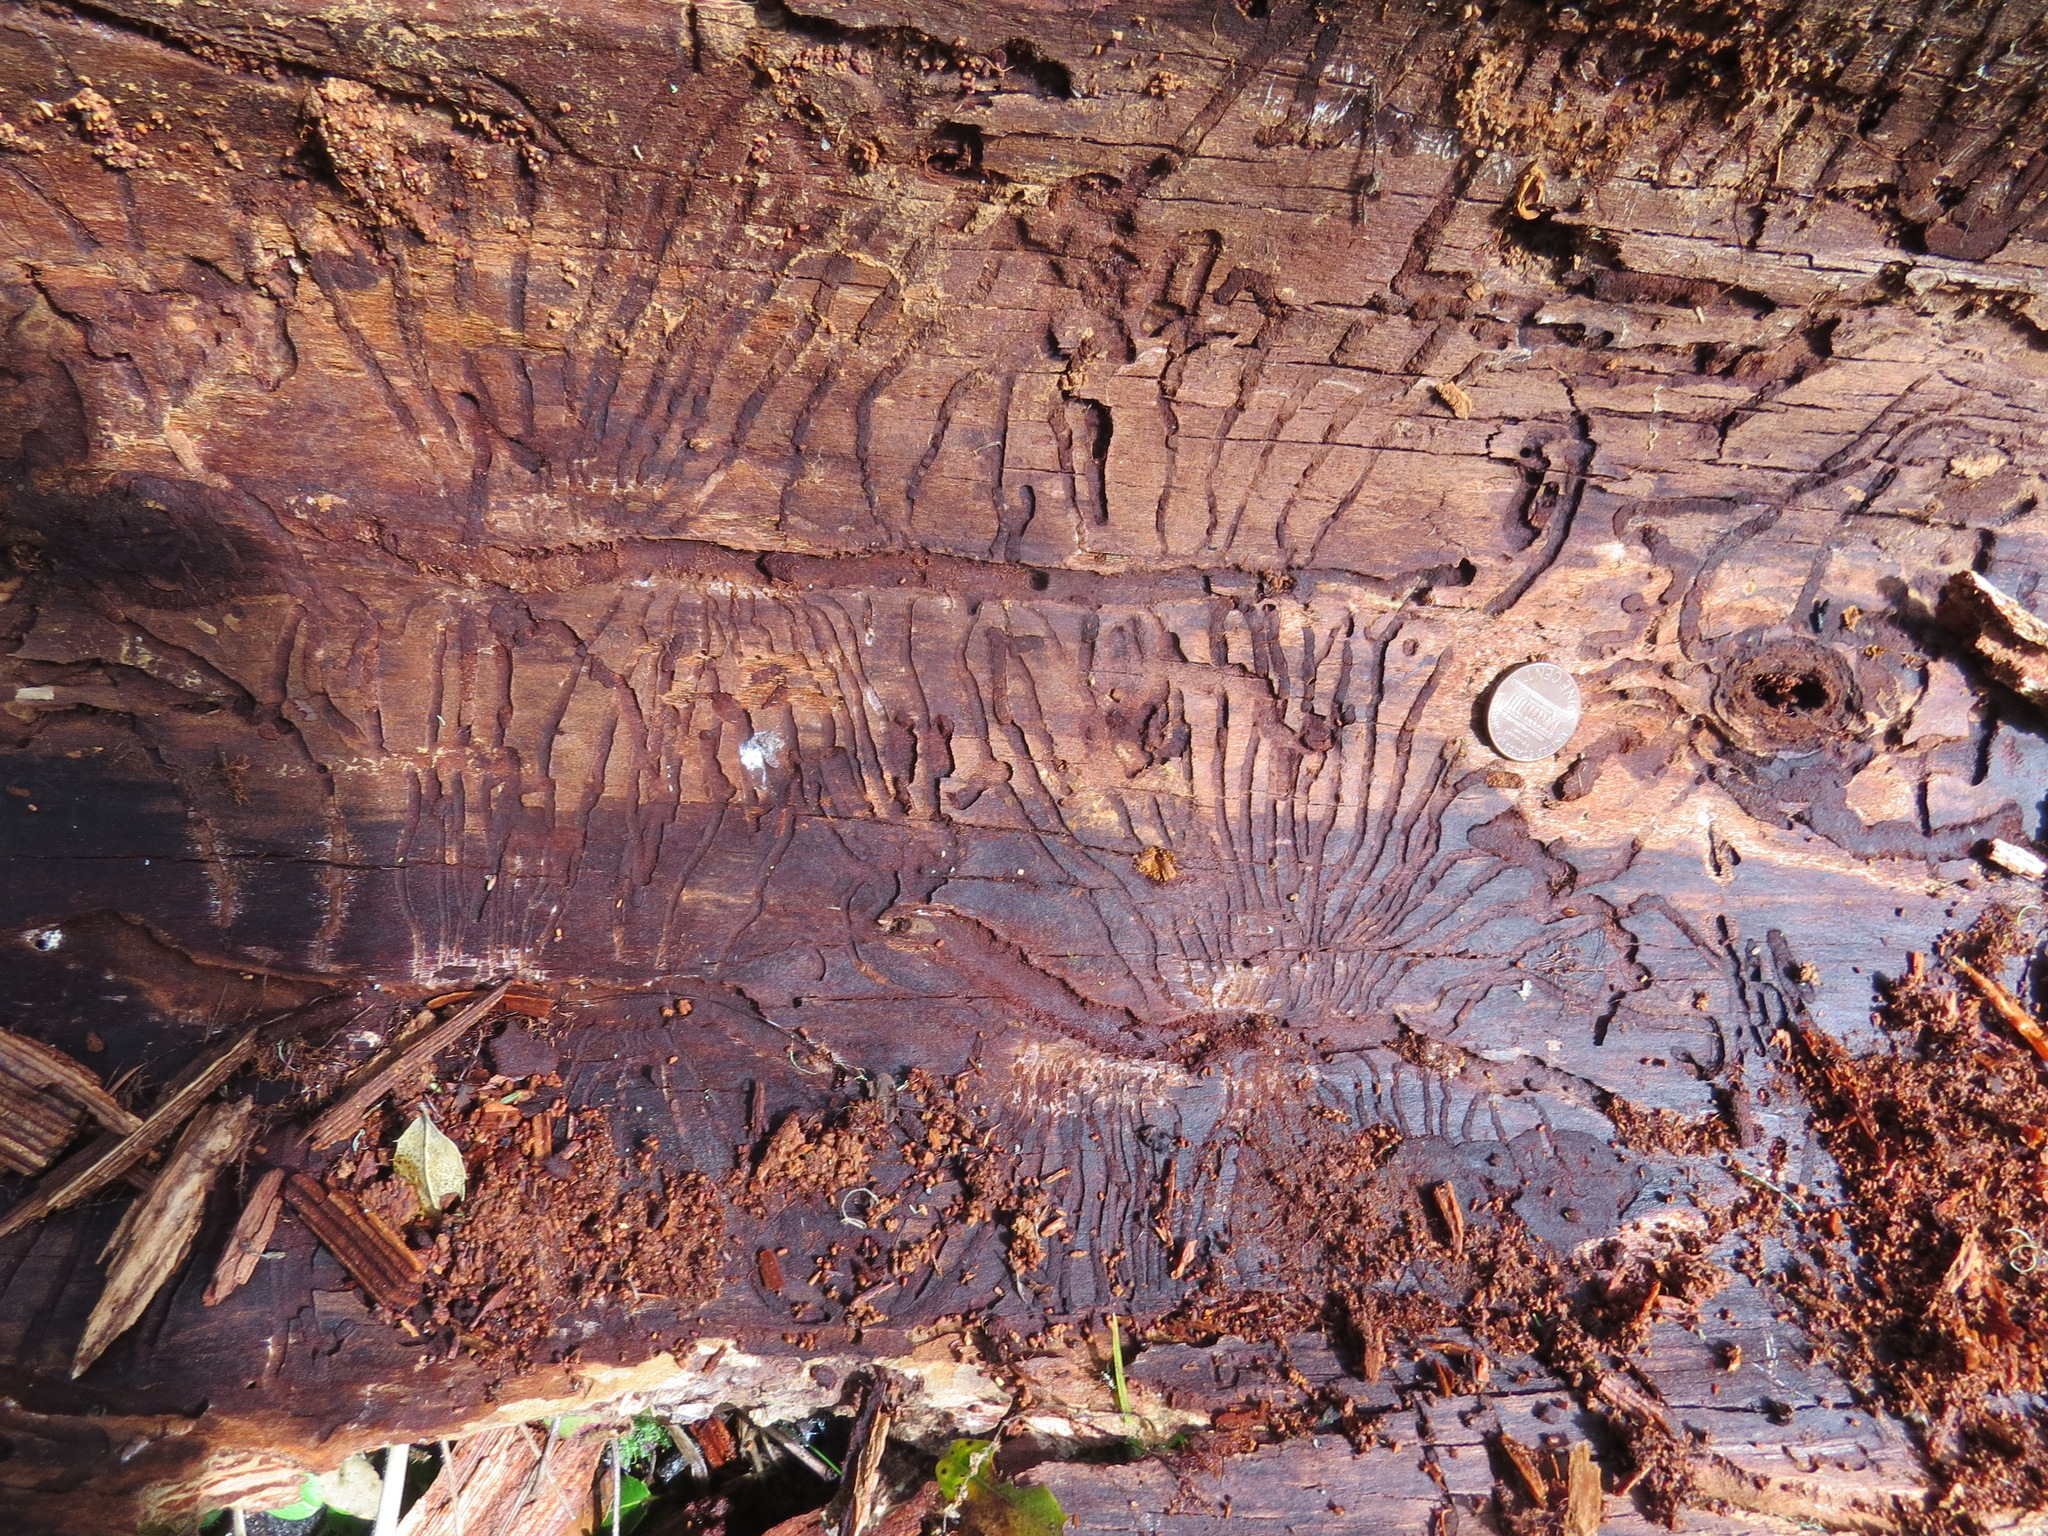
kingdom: Animalia
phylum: Arthropoda
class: Insecta
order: Coleoptera
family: Curculionidae
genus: Scolytus
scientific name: Scolytus unispinosus
